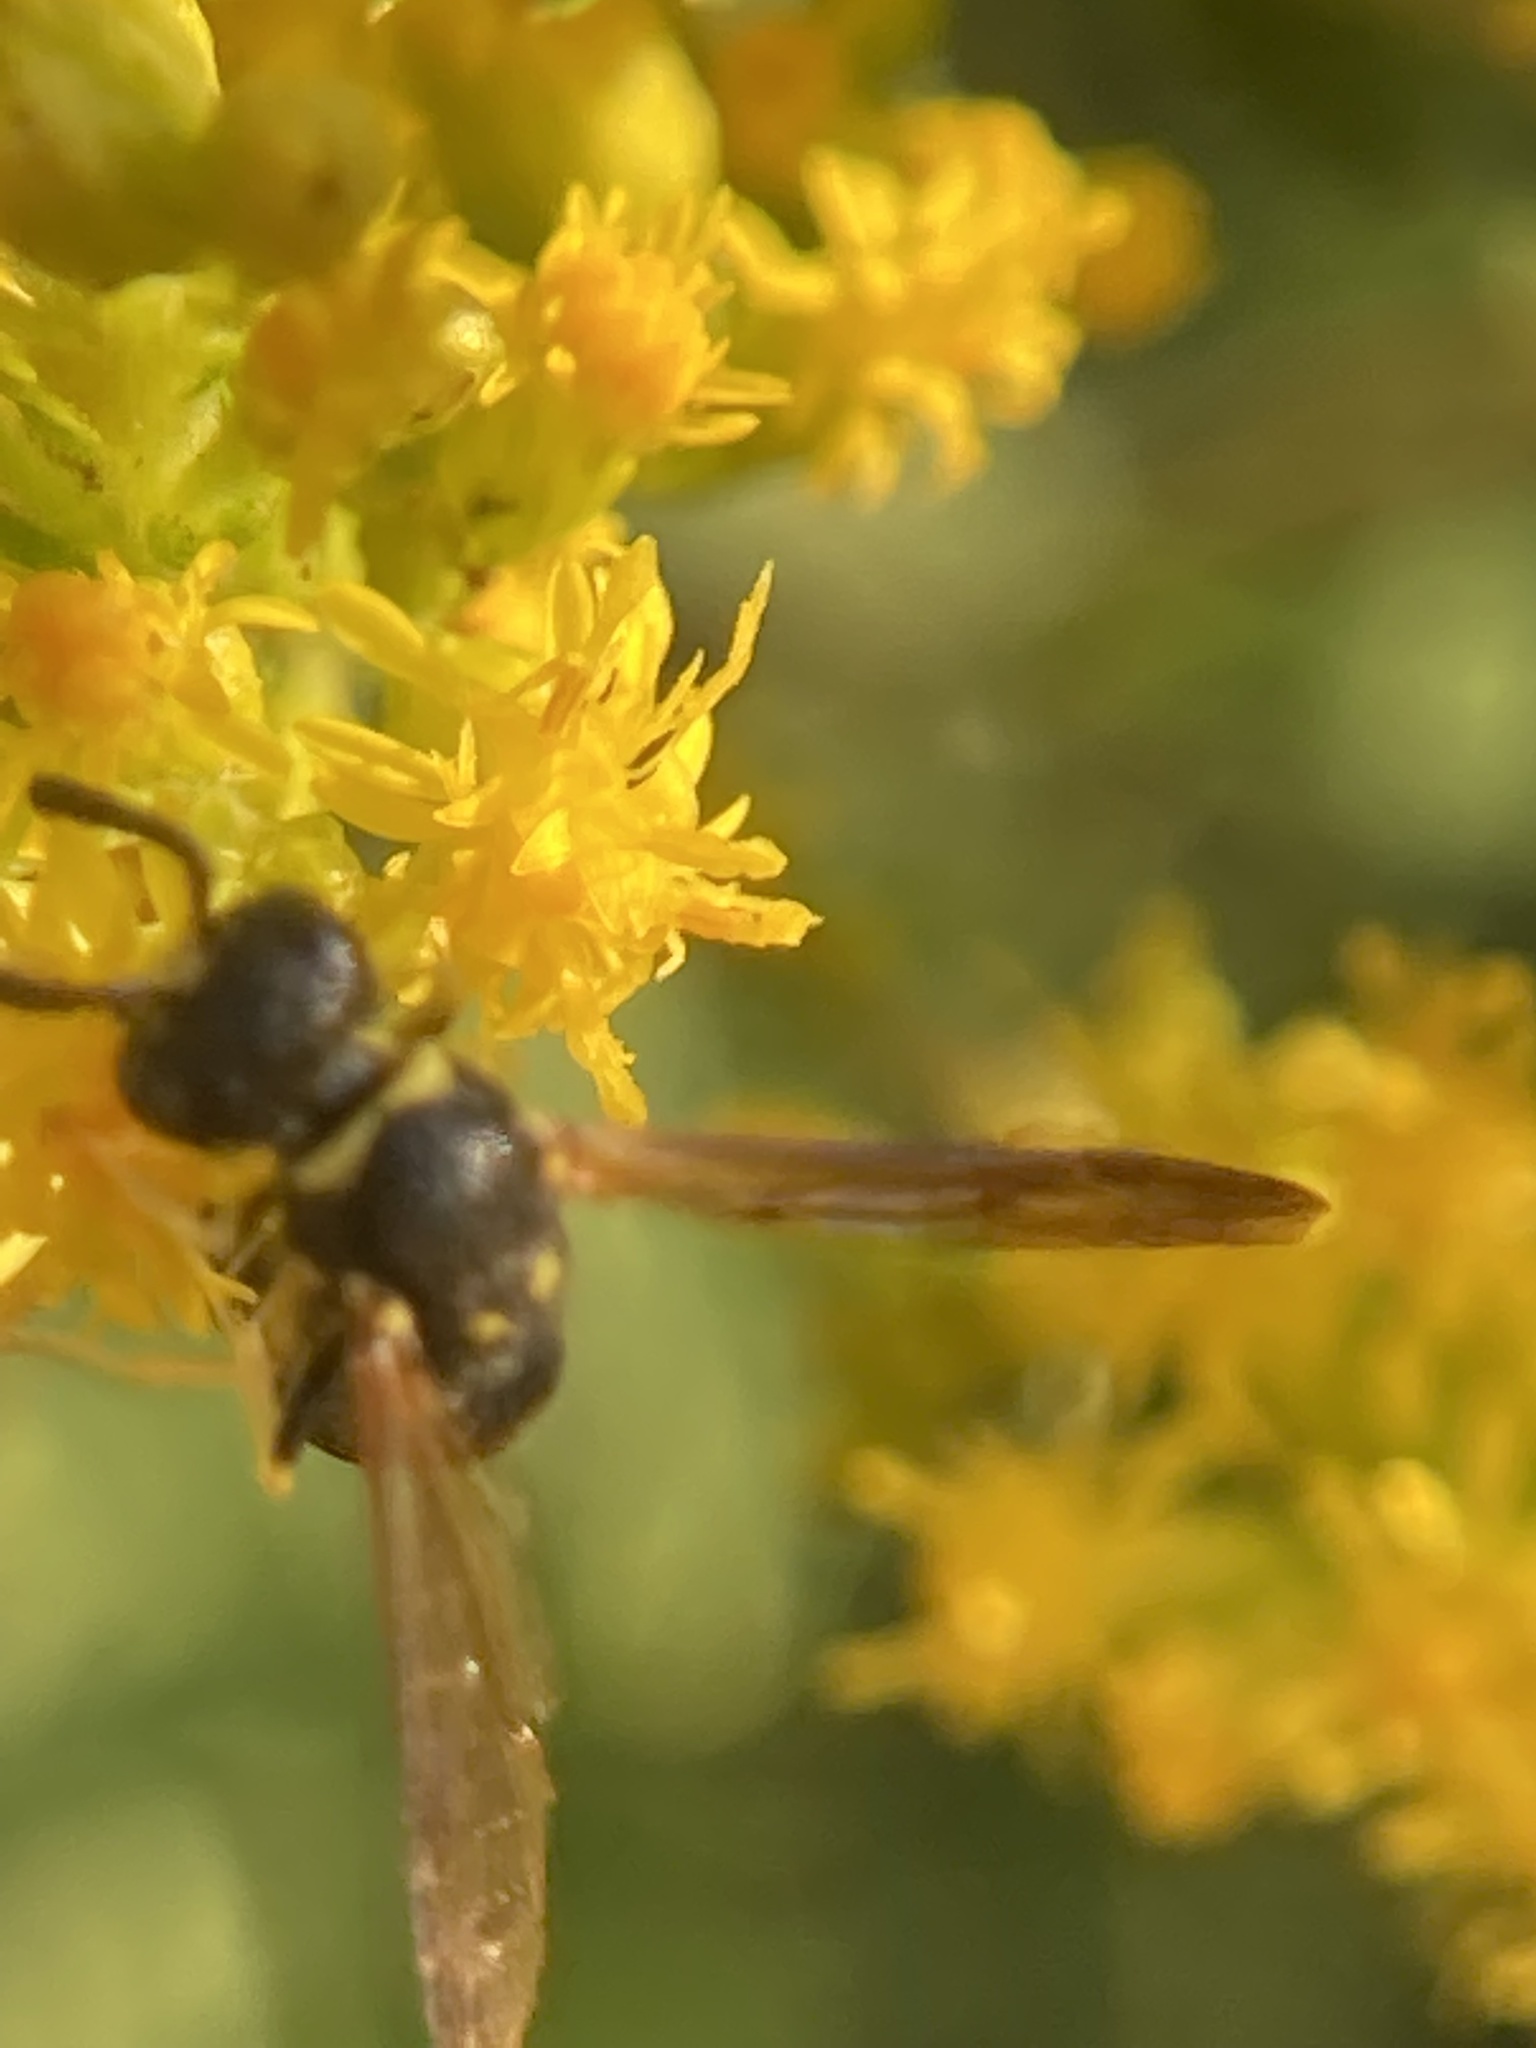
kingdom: Animalia
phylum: Arthropoda
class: Insecta
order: Hymenoptera
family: Vespidae
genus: Ancistrocerus
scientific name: Ancistrocerus
